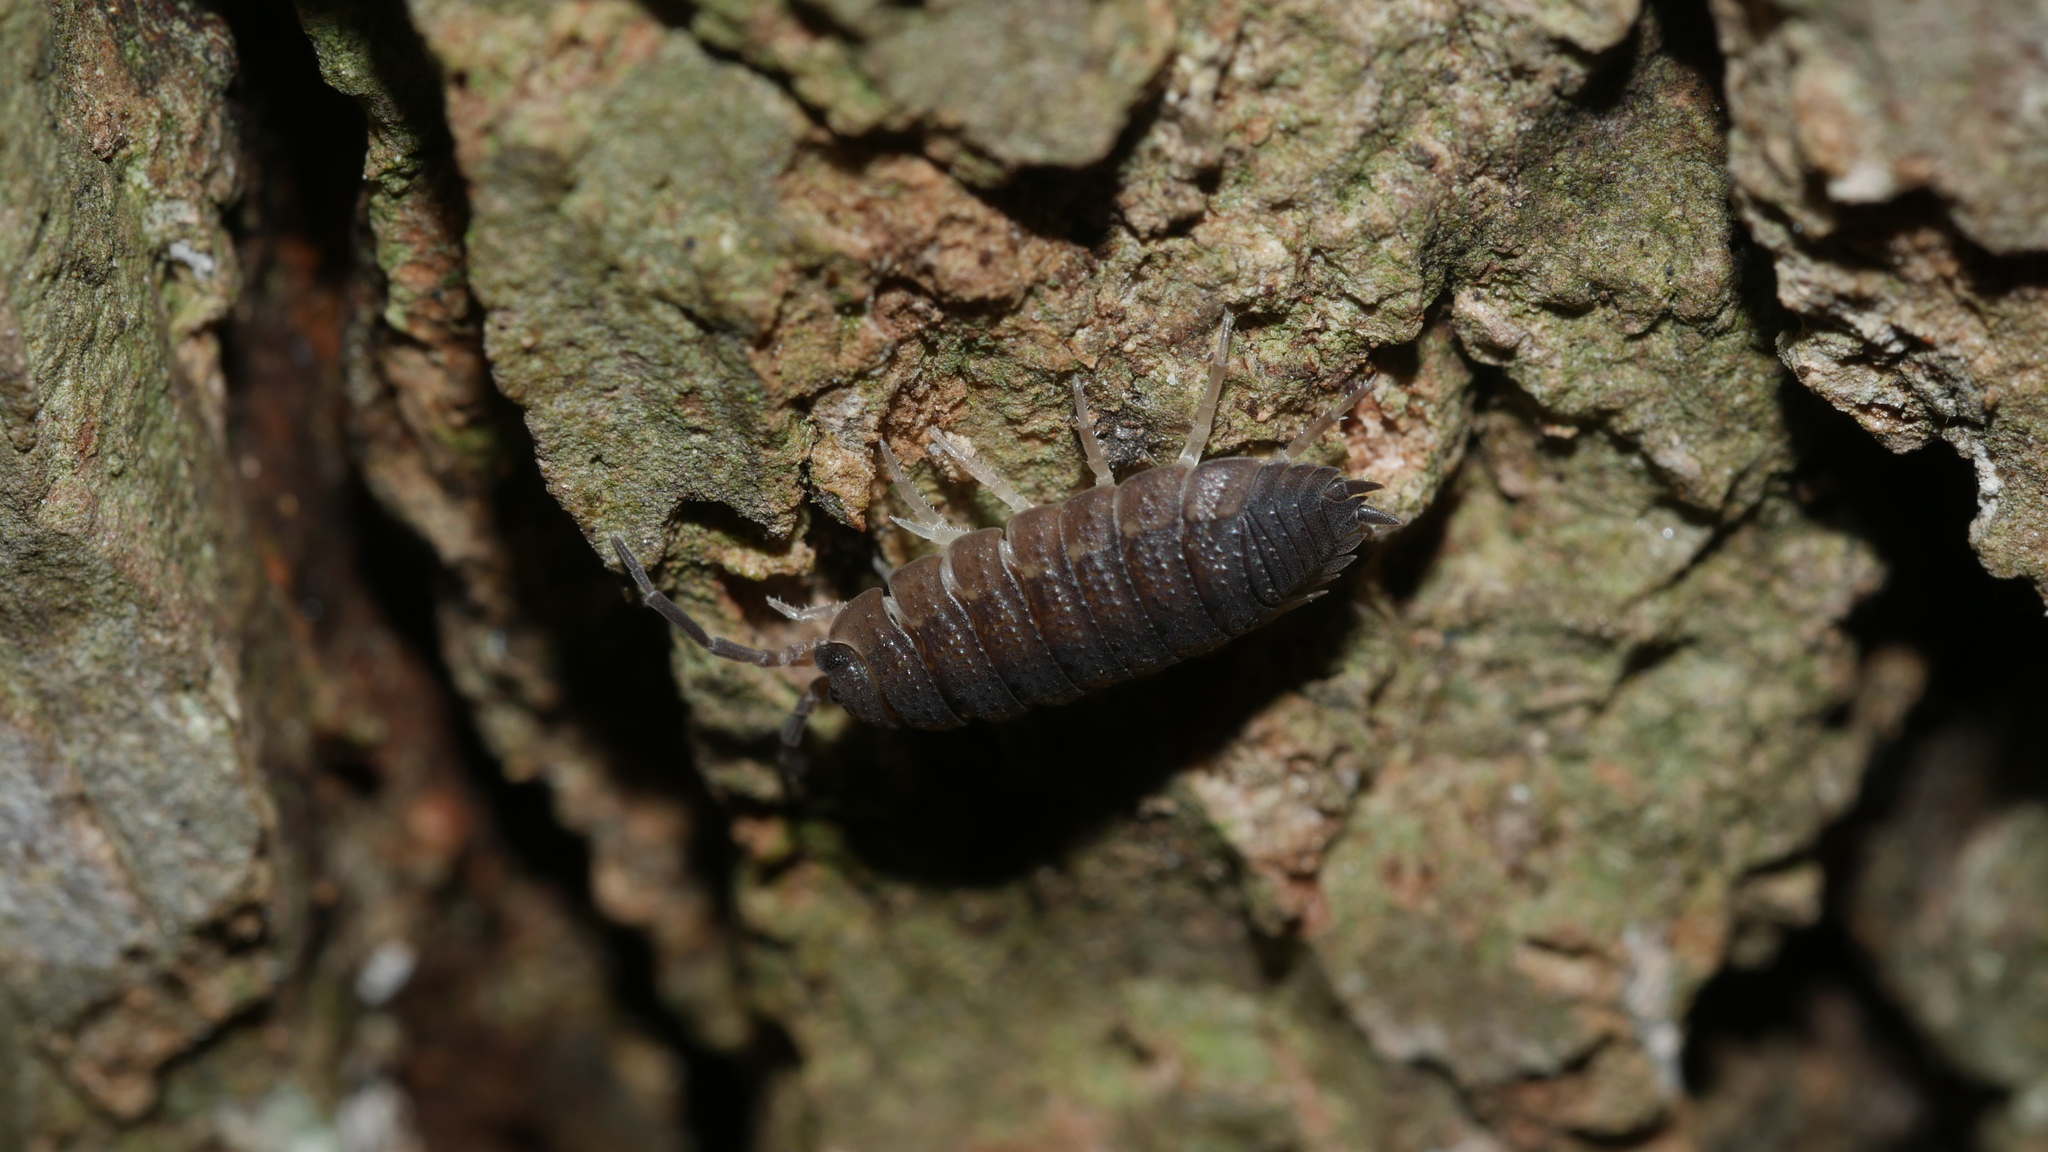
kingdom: Animalia
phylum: Arthropoda
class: Malacostraca
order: Isopoda
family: Porcellionidae
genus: Porcellio
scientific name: Porcellio scaber
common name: Common rough woodlouse
